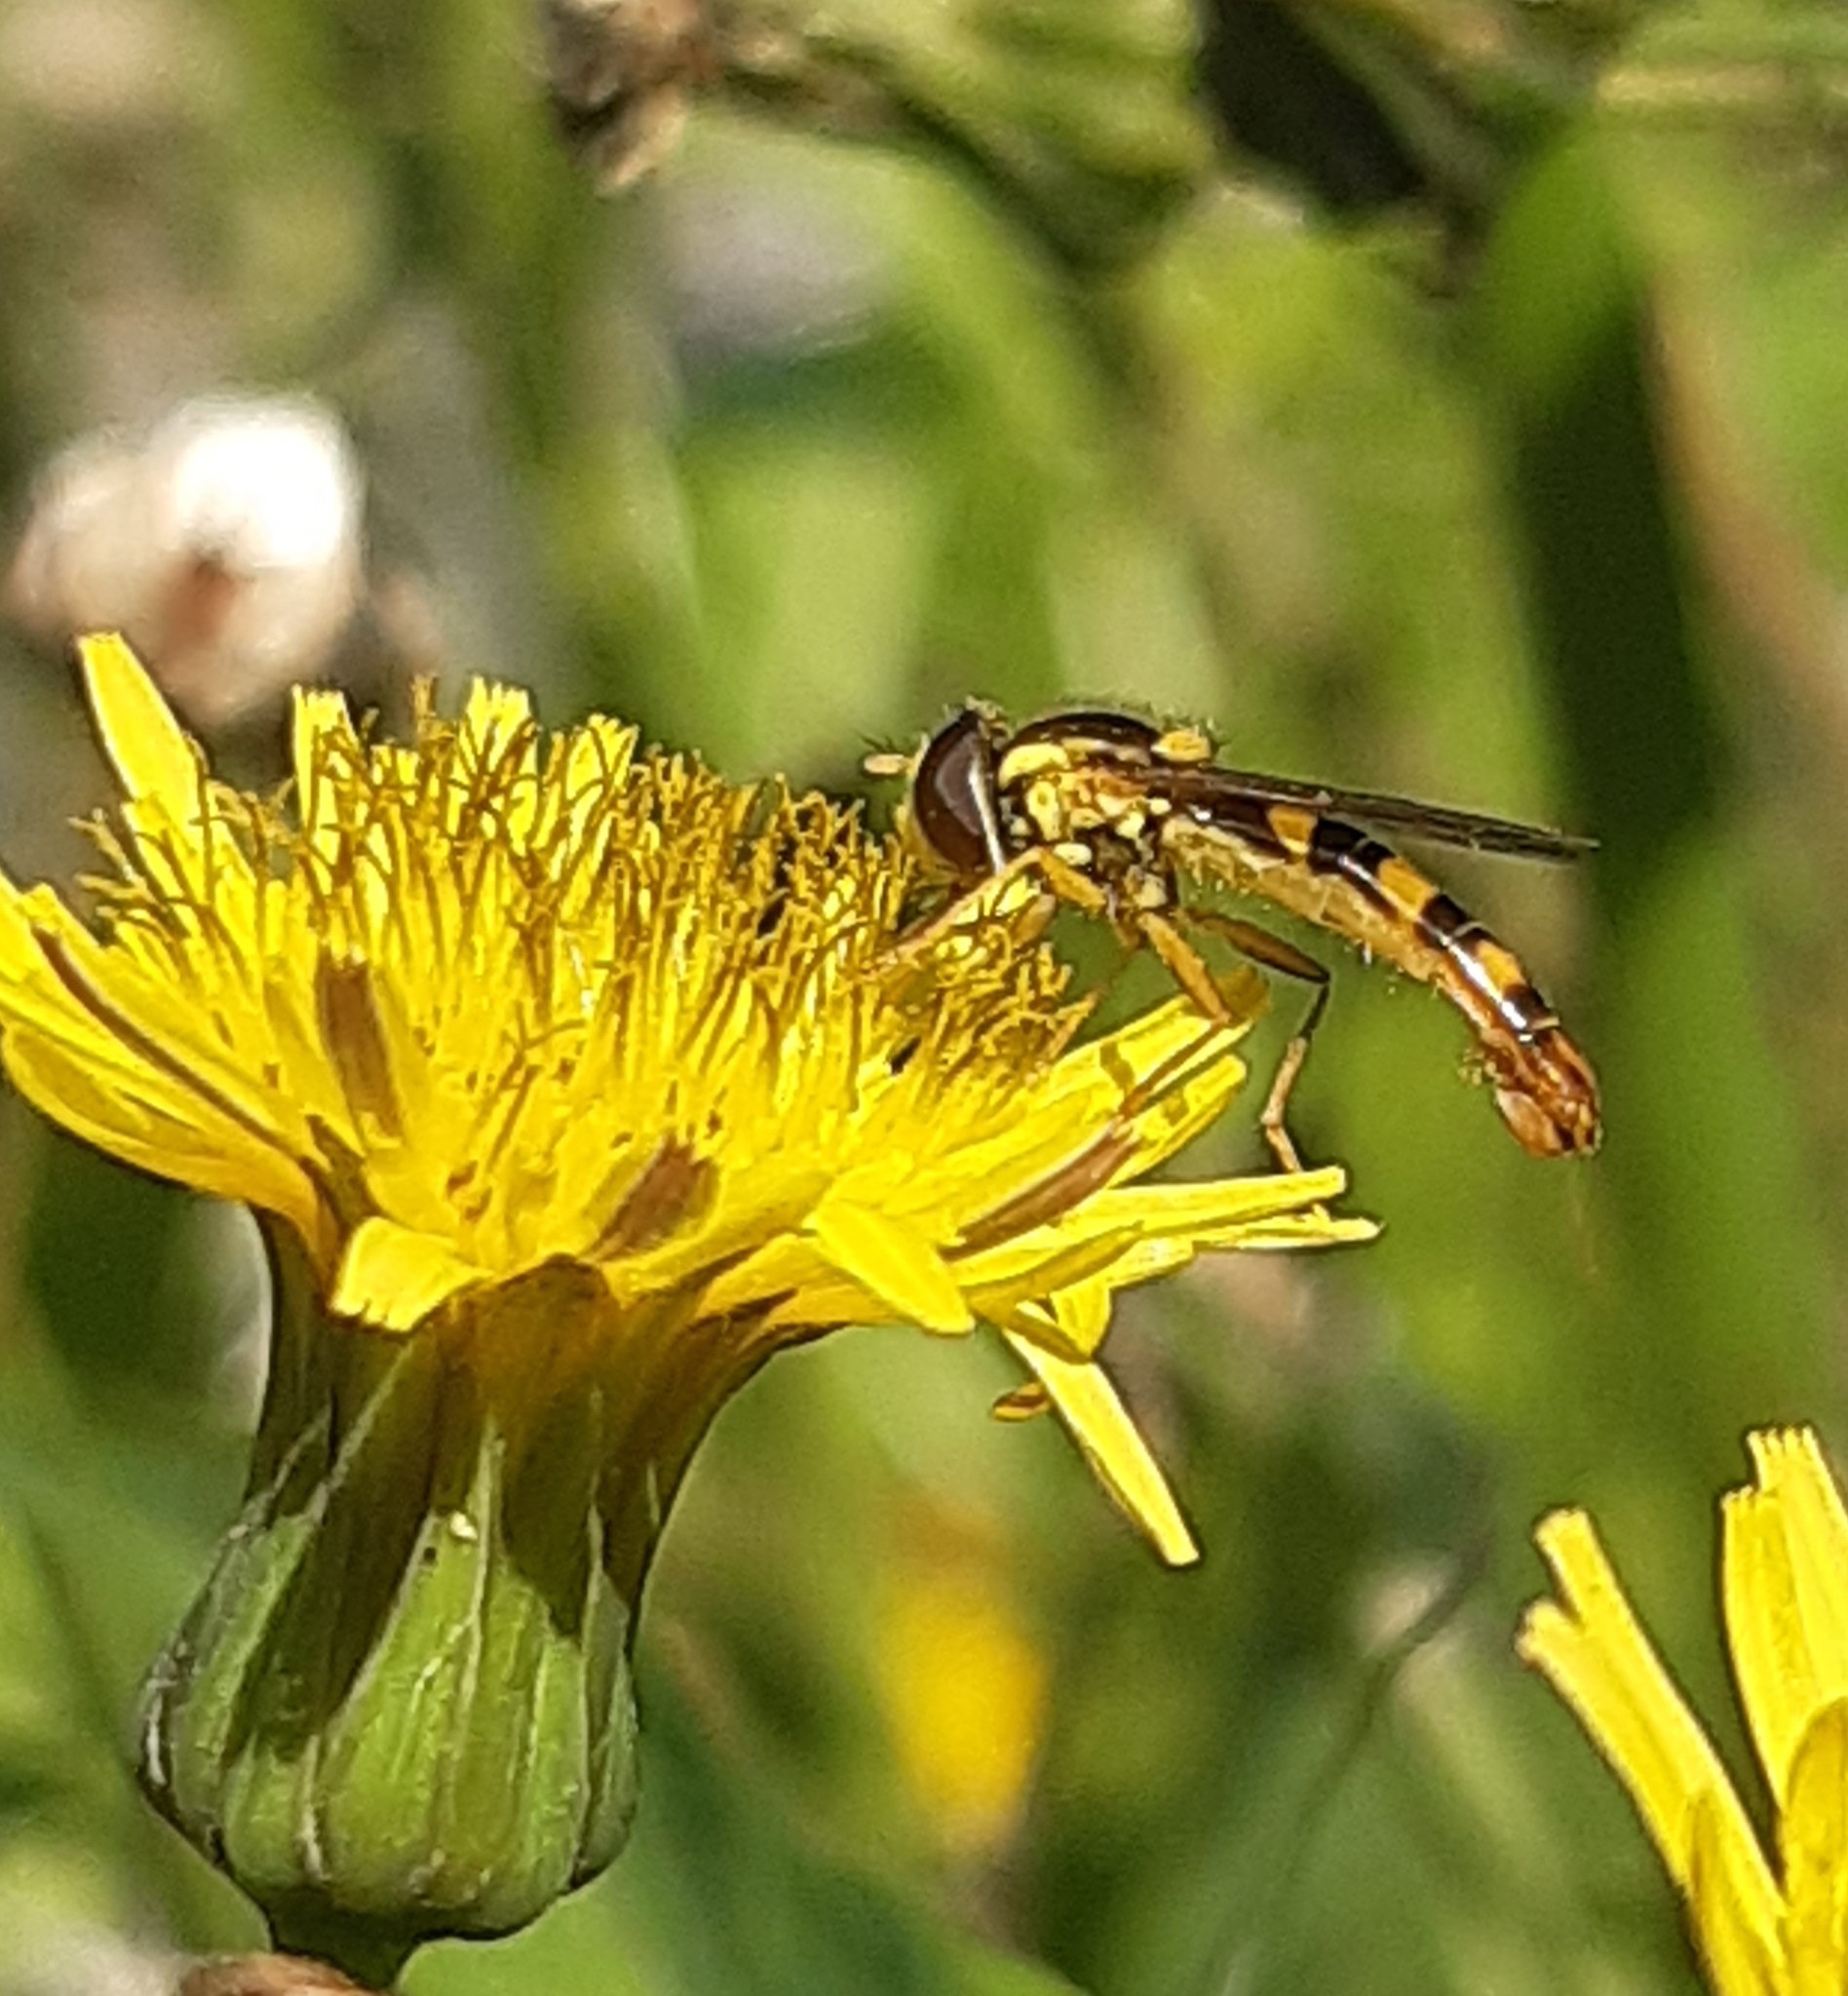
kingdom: Animalia
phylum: Arthropoda
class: Insecta
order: Diptera
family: Syrphidae
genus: Sphaerophoria
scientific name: Sphaerophoria scripta
